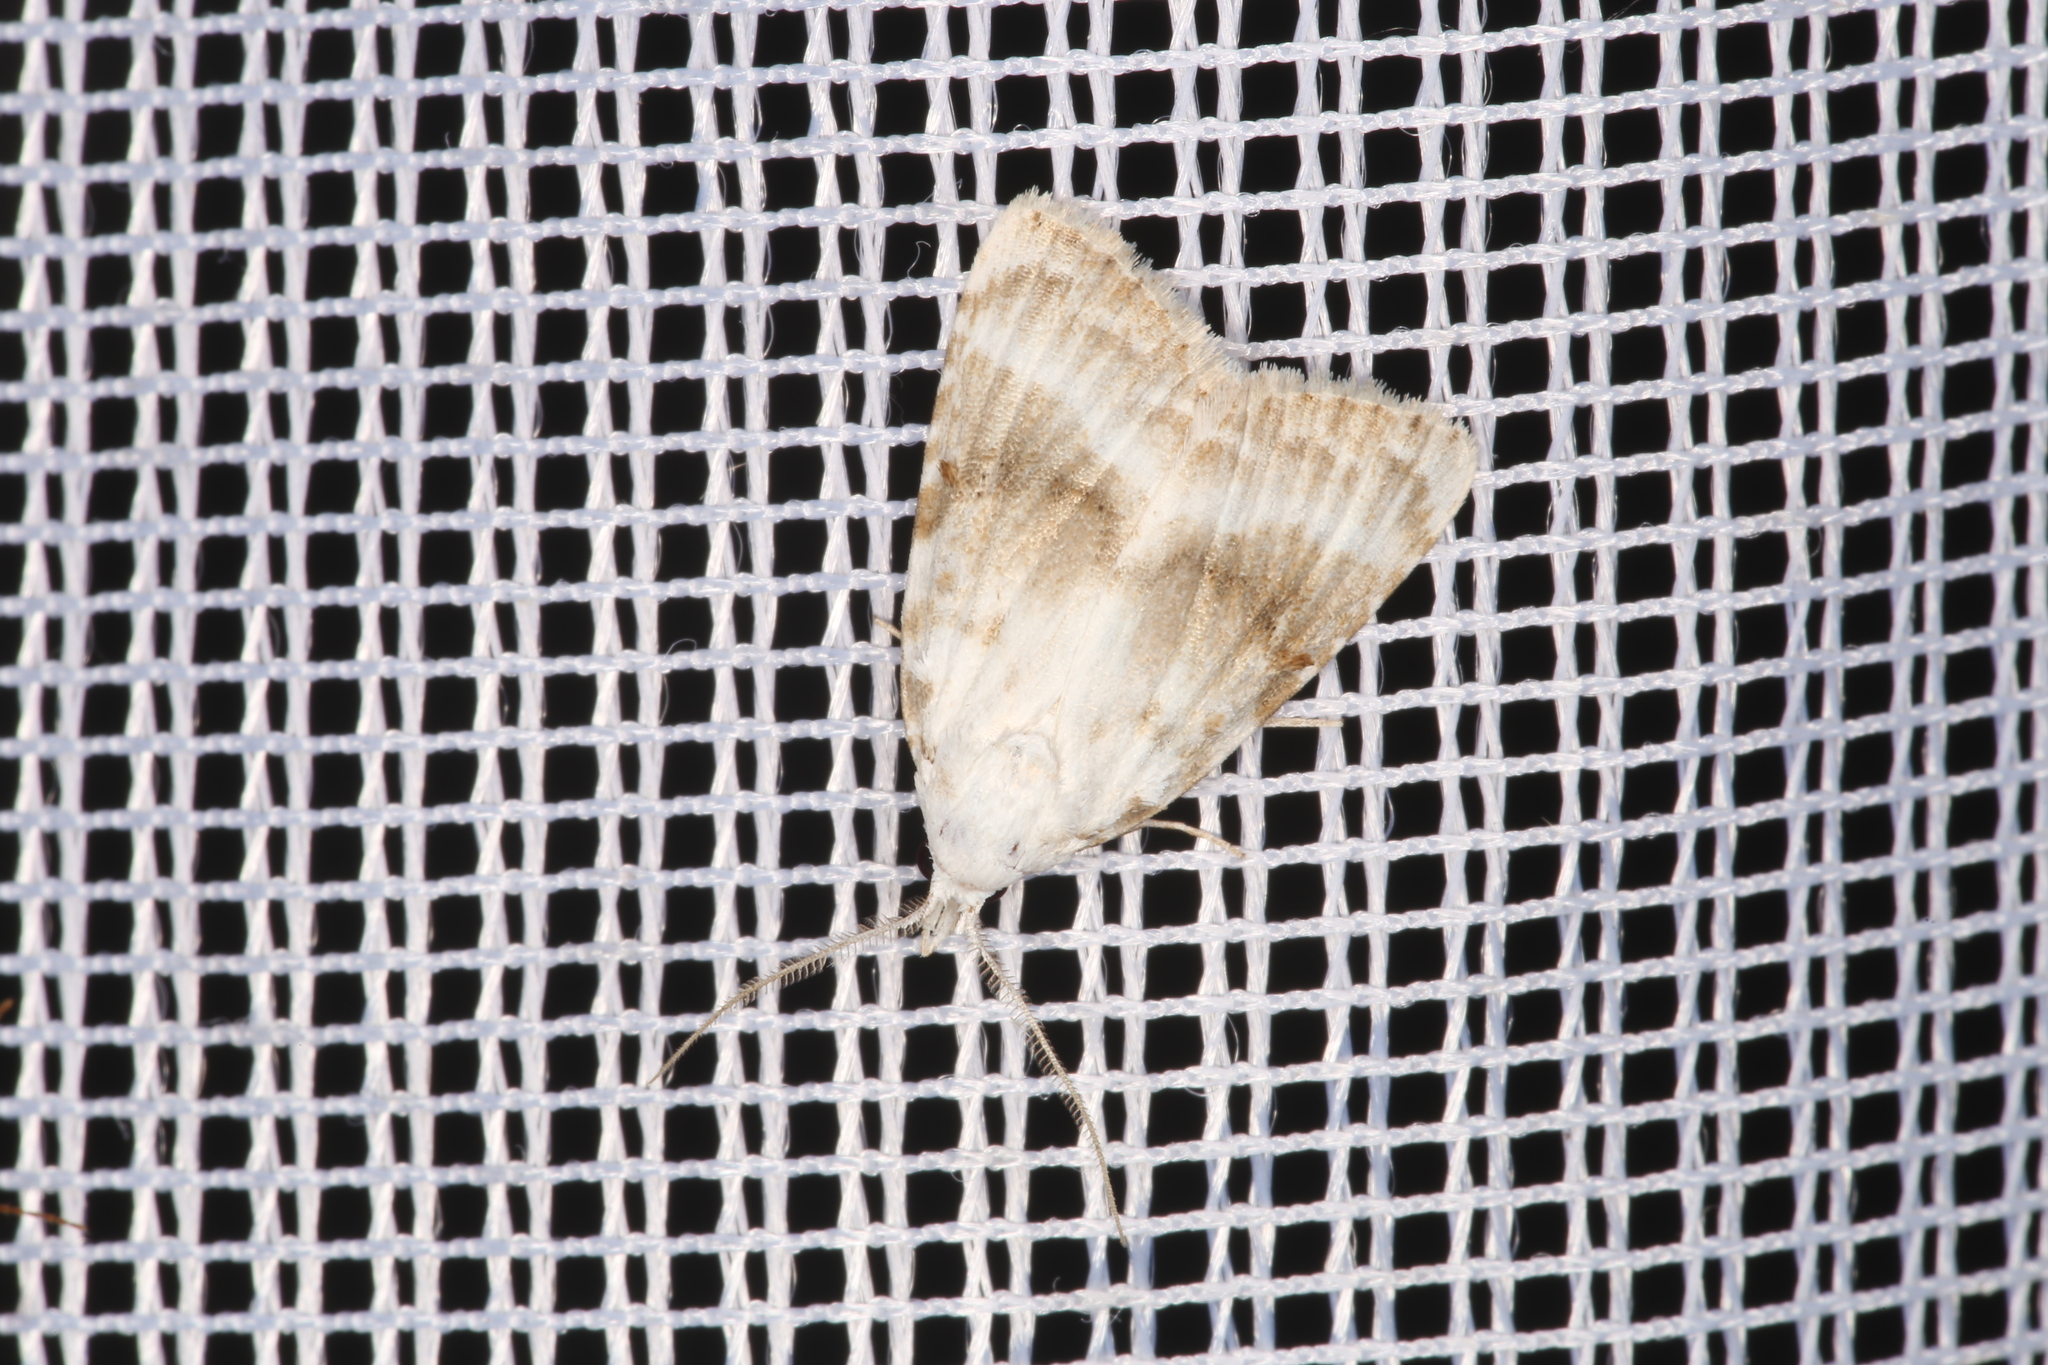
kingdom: Animalia
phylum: Arthropoda
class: Insecta
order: Lepidoptera
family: Nolidae
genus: Meganola
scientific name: Meganola albula
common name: Kent black arches
